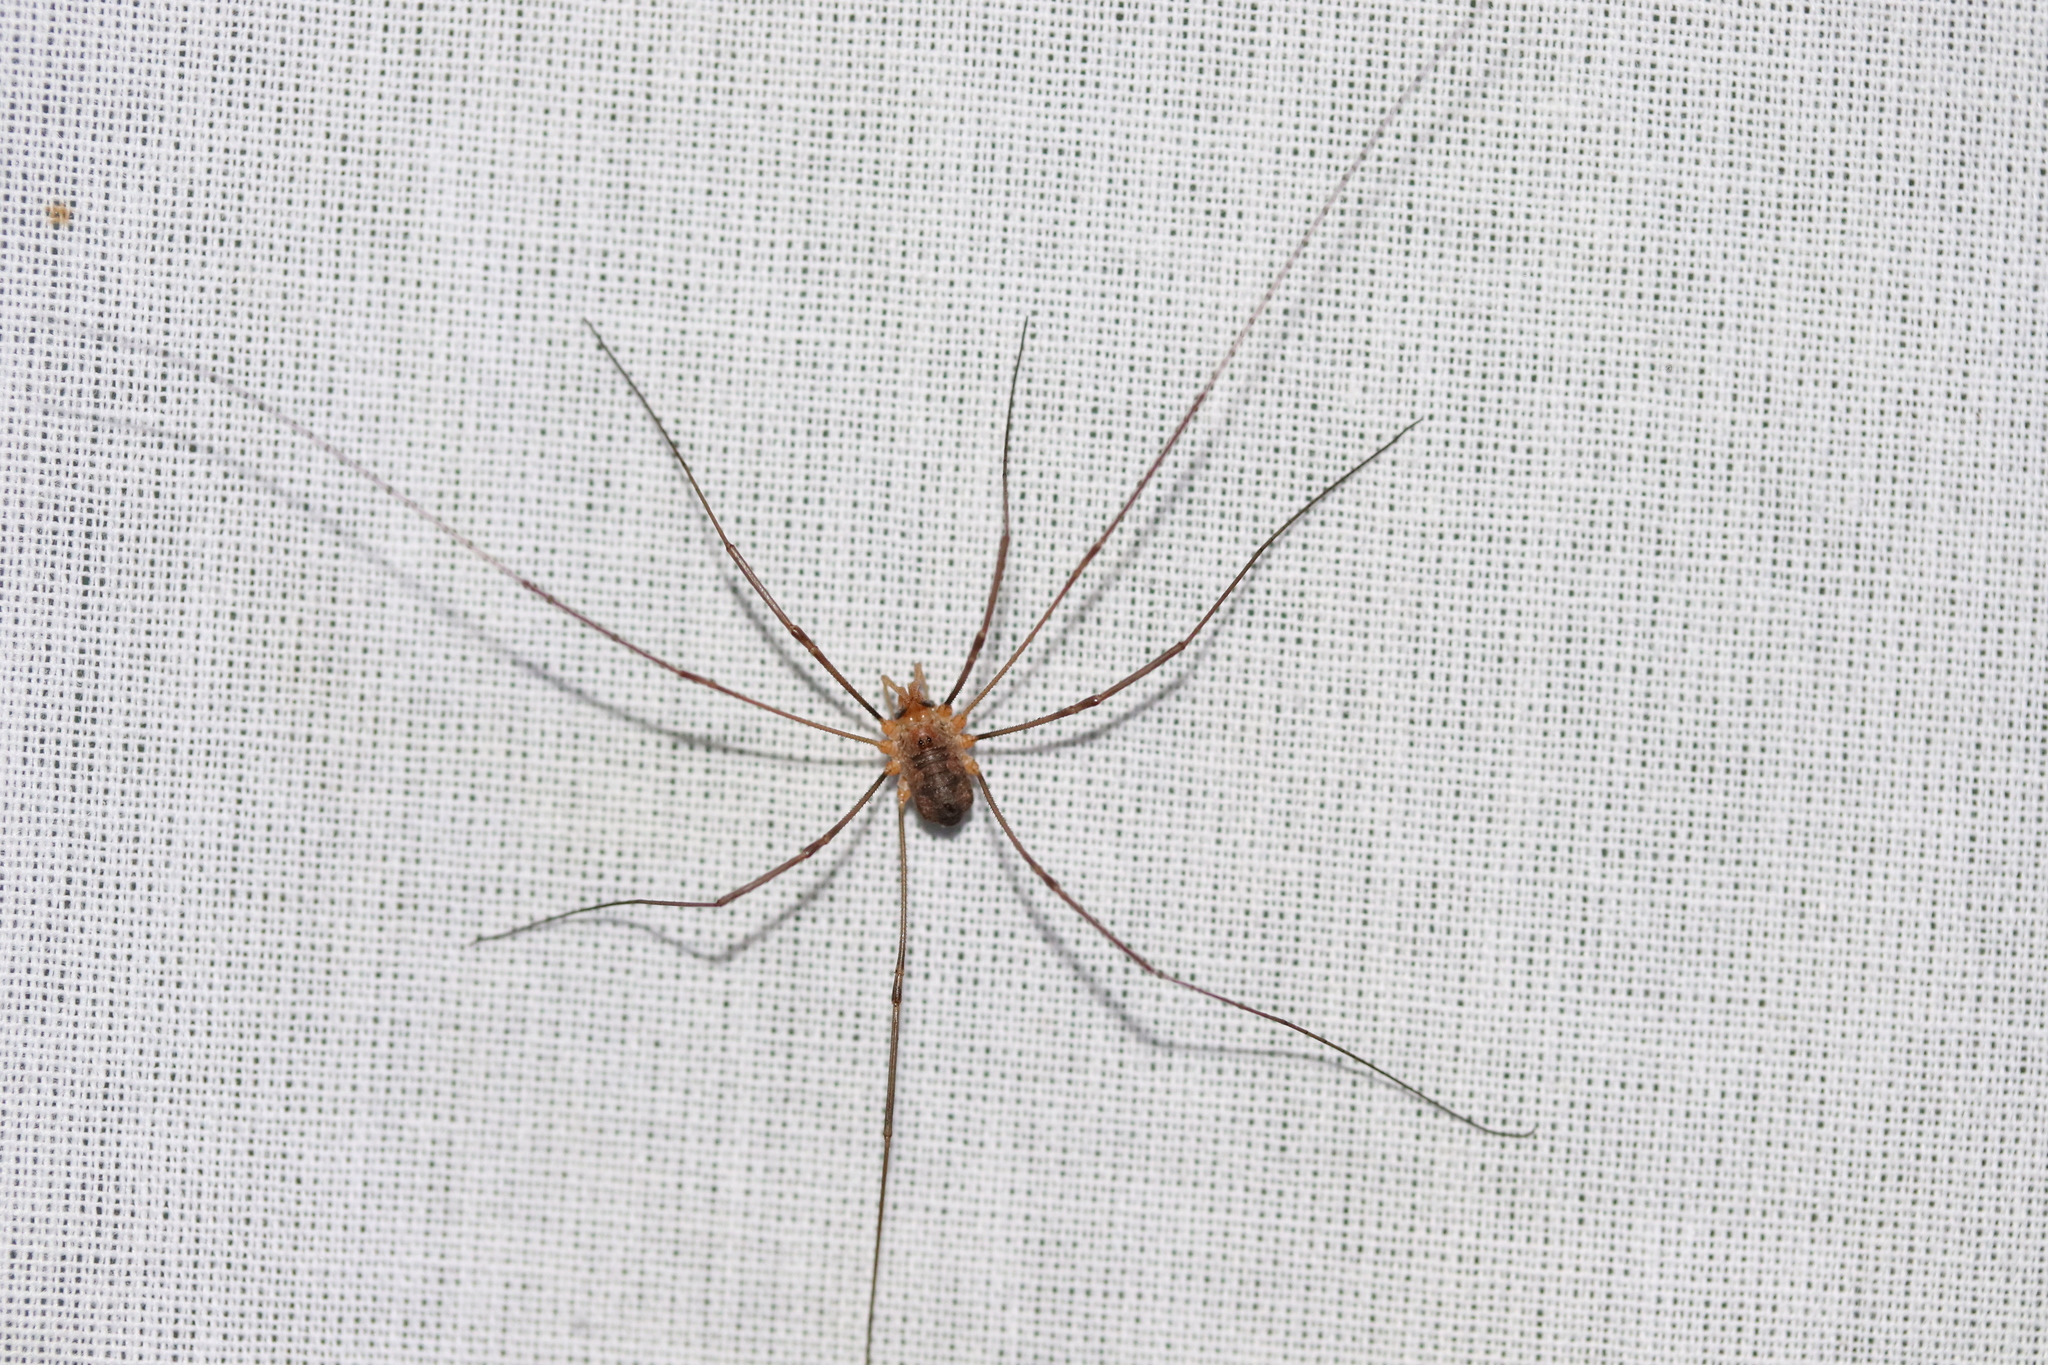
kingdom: Animalia
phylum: Arthropoda
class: Arachnida
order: Opiliones
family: Phalangiidae
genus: Phalangium
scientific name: Phalangium opilio
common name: Daddy longleg
